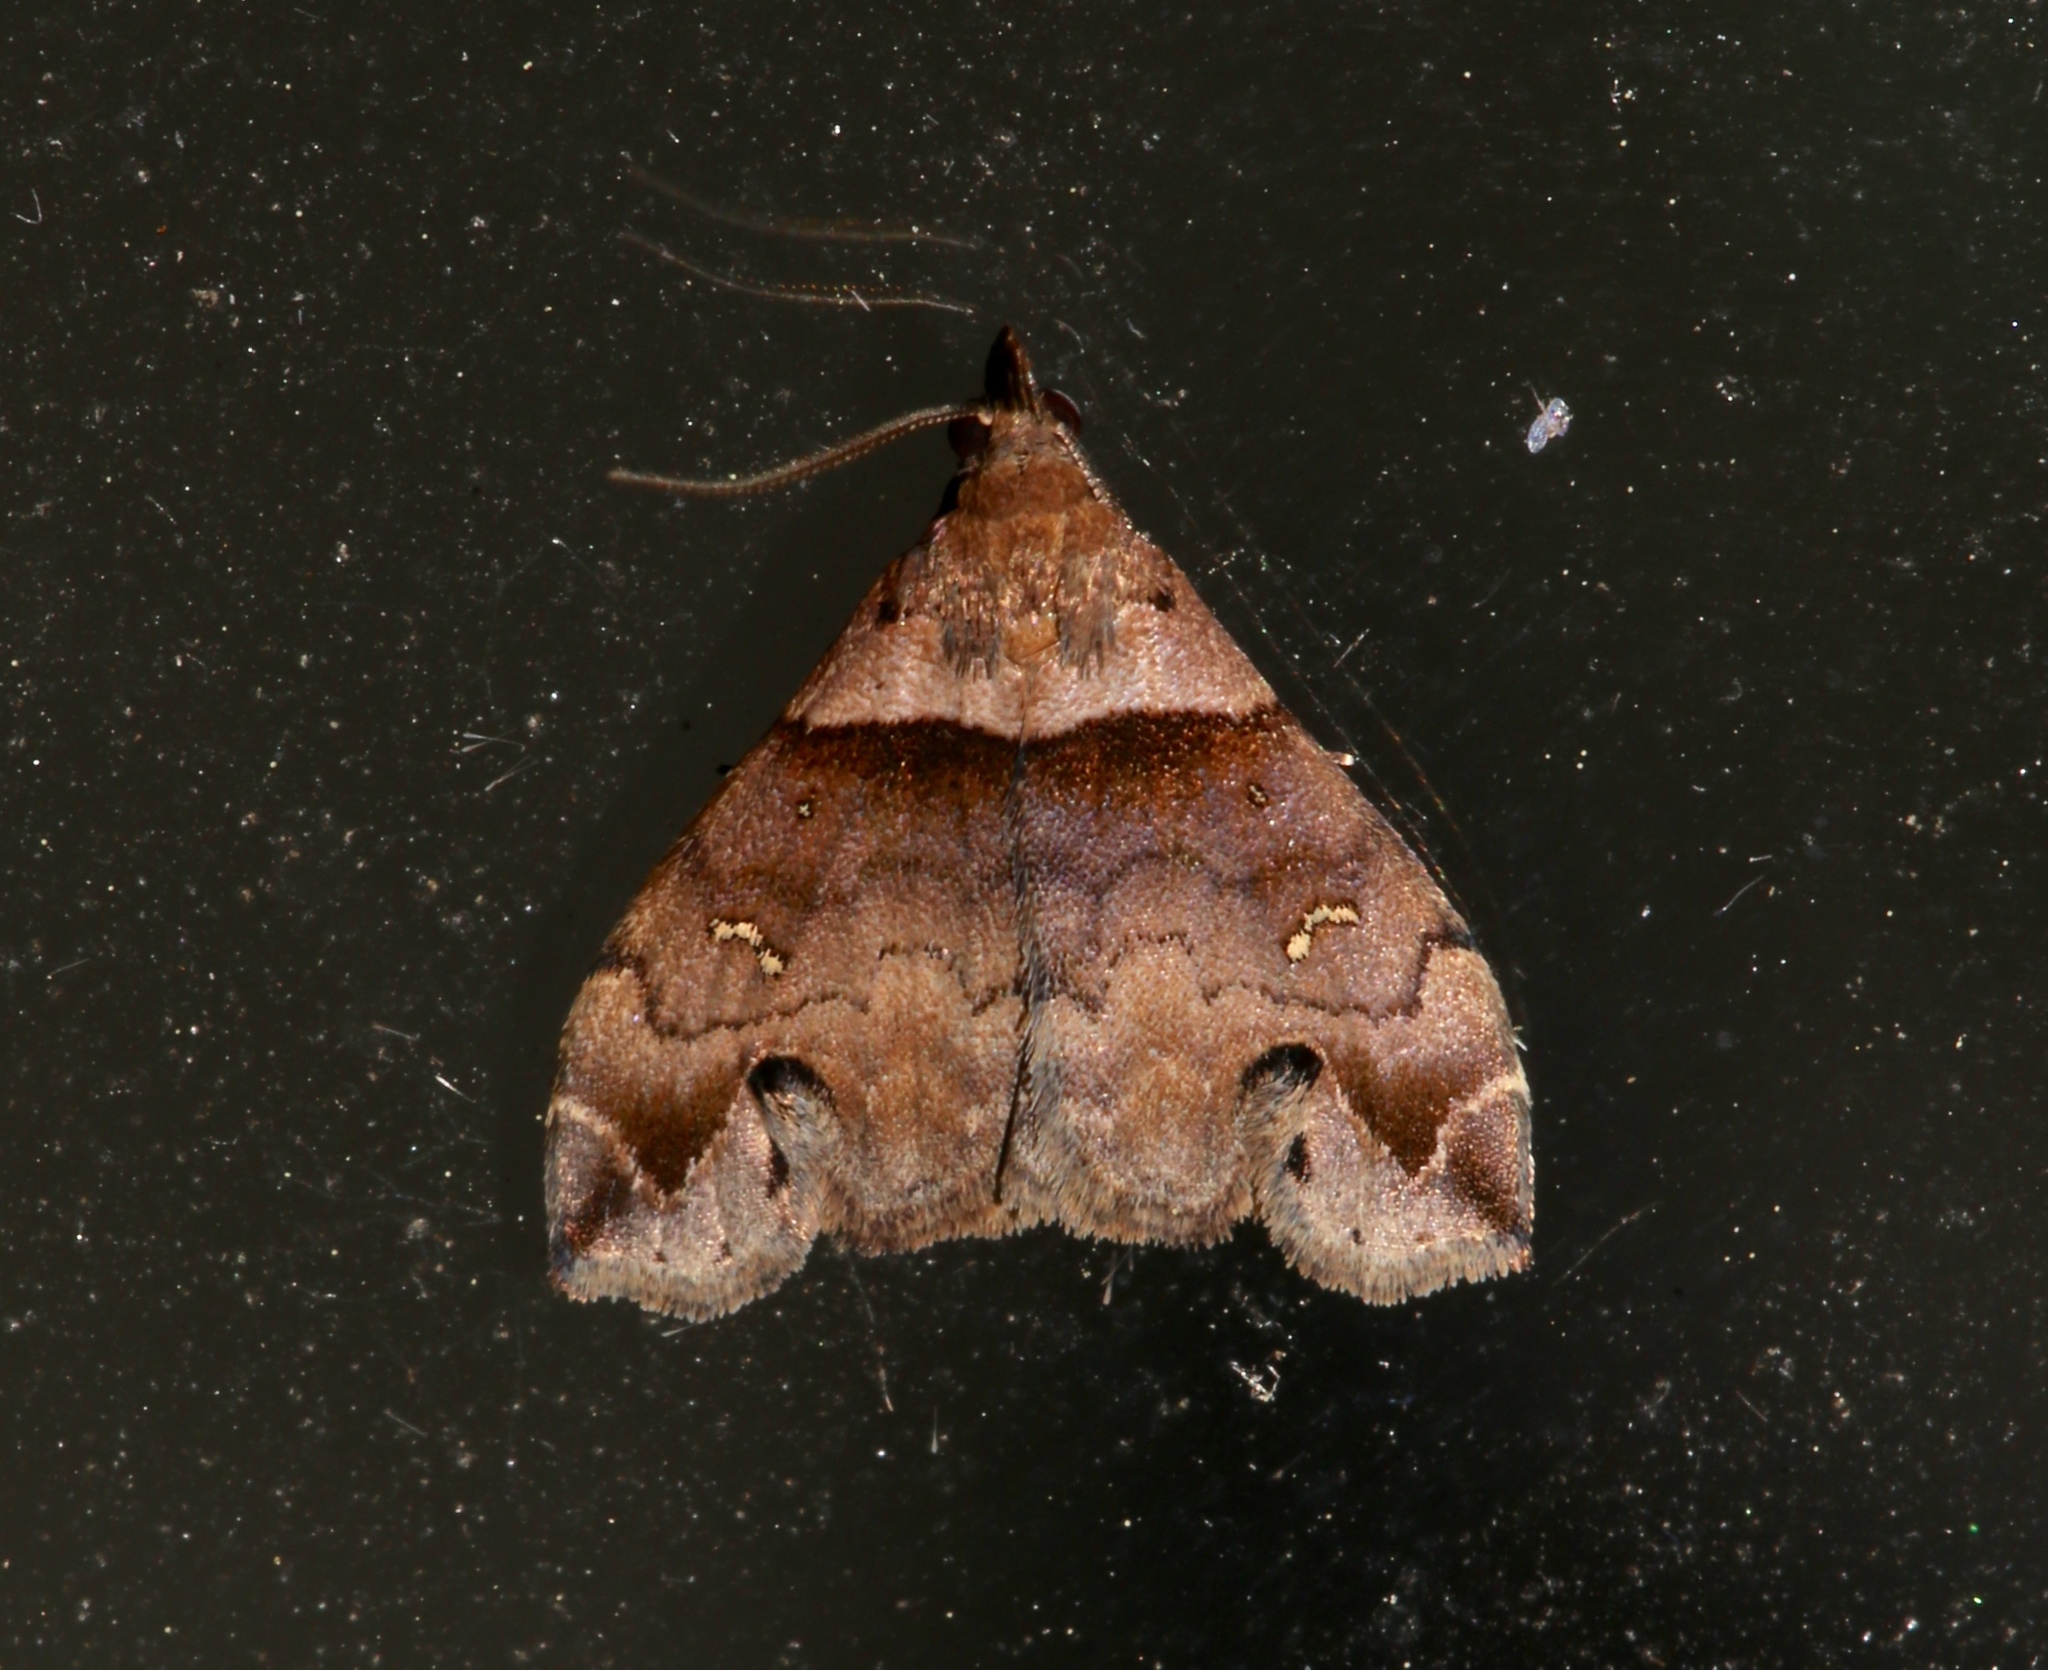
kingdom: Animalia
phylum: Arthropoda
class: Insecta
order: Lepidoptera
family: Erebidae
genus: Lascoria
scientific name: Lascoria ambigualis
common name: Ambiguous moth
